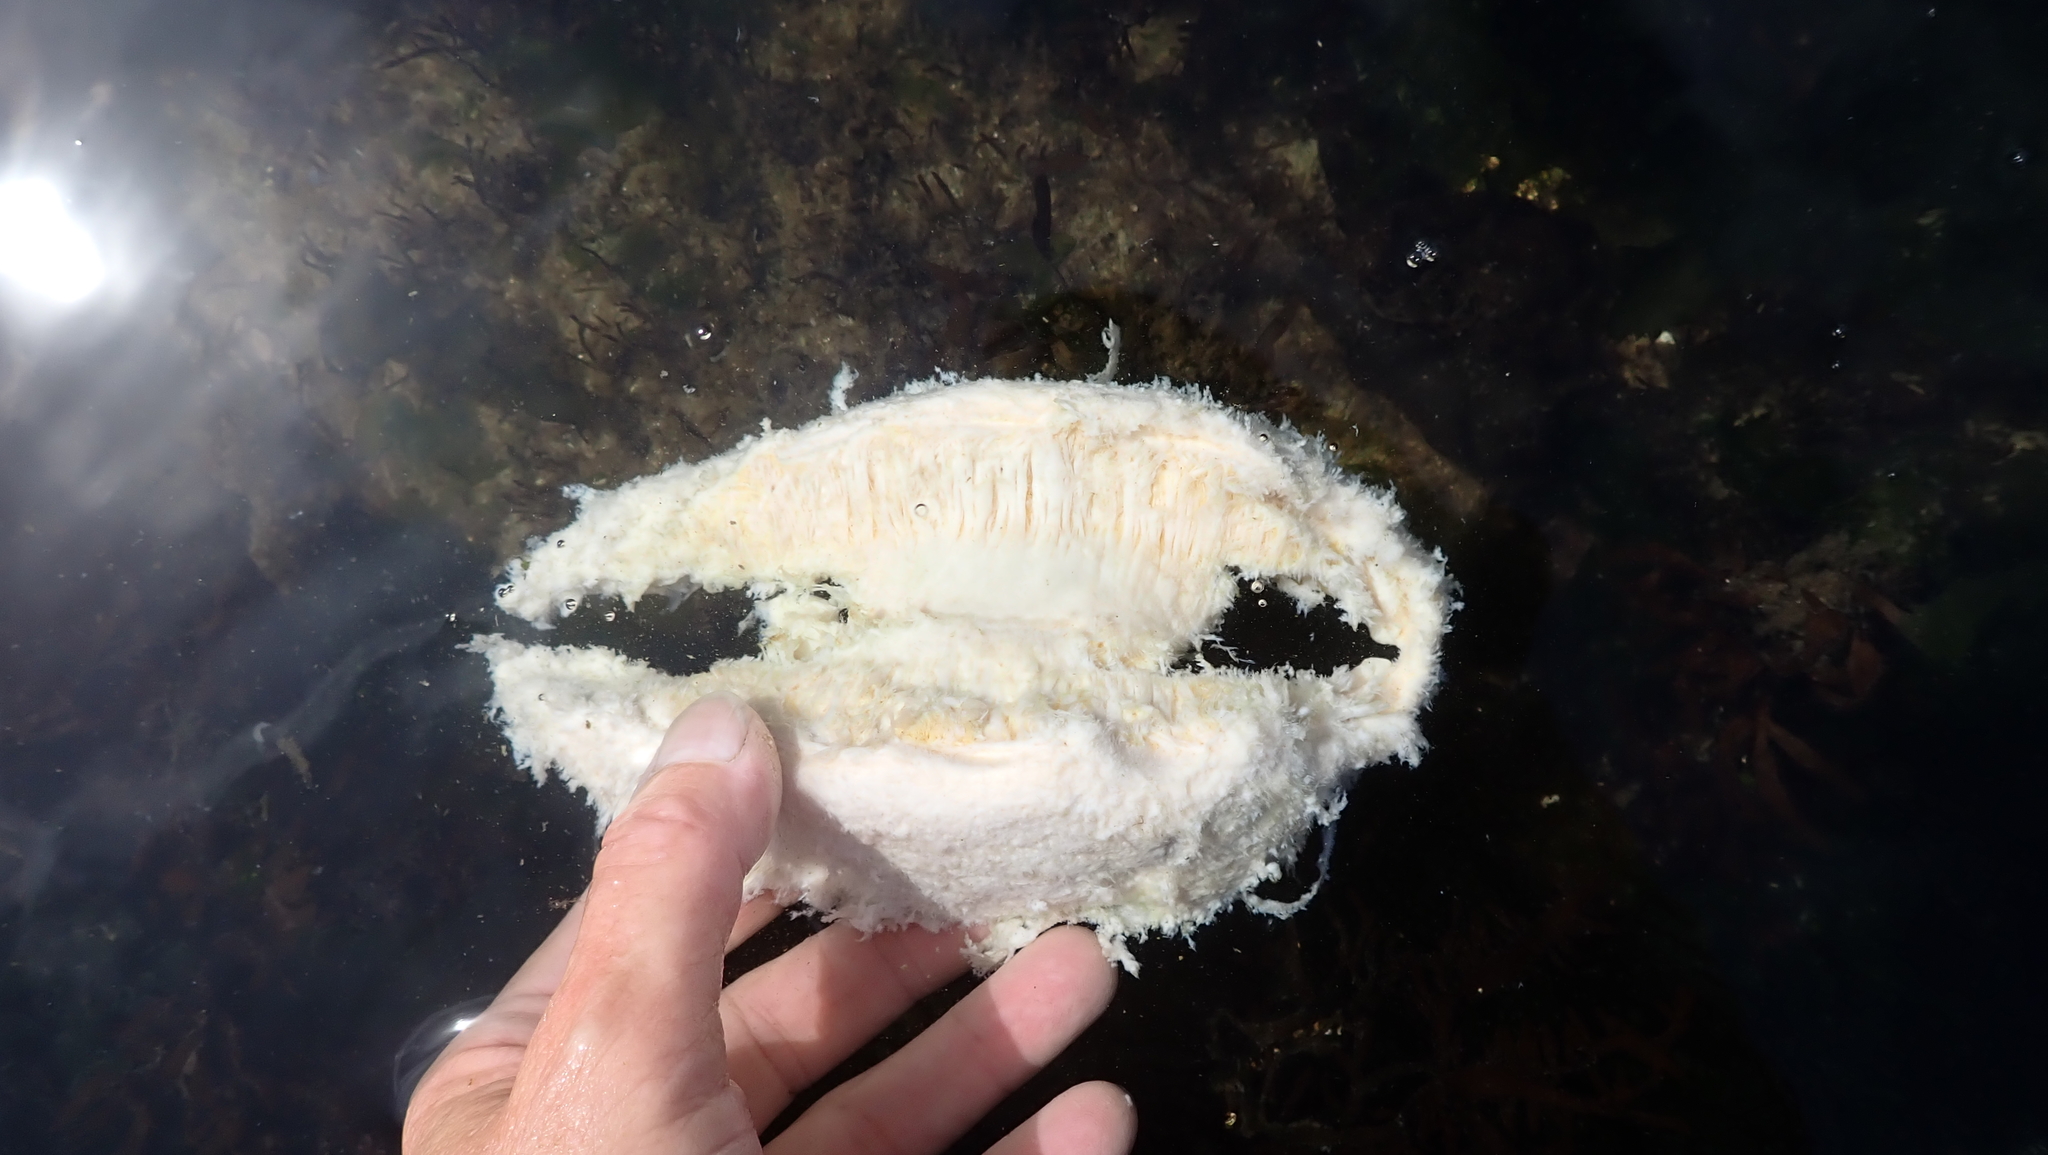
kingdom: Animalia
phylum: Mollusca
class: Polyplacophora
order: Chitonida
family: Acanthochitonidae
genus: Cryptochiton
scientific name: Cryptochiton stelleri
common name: Giant pacific chiton
